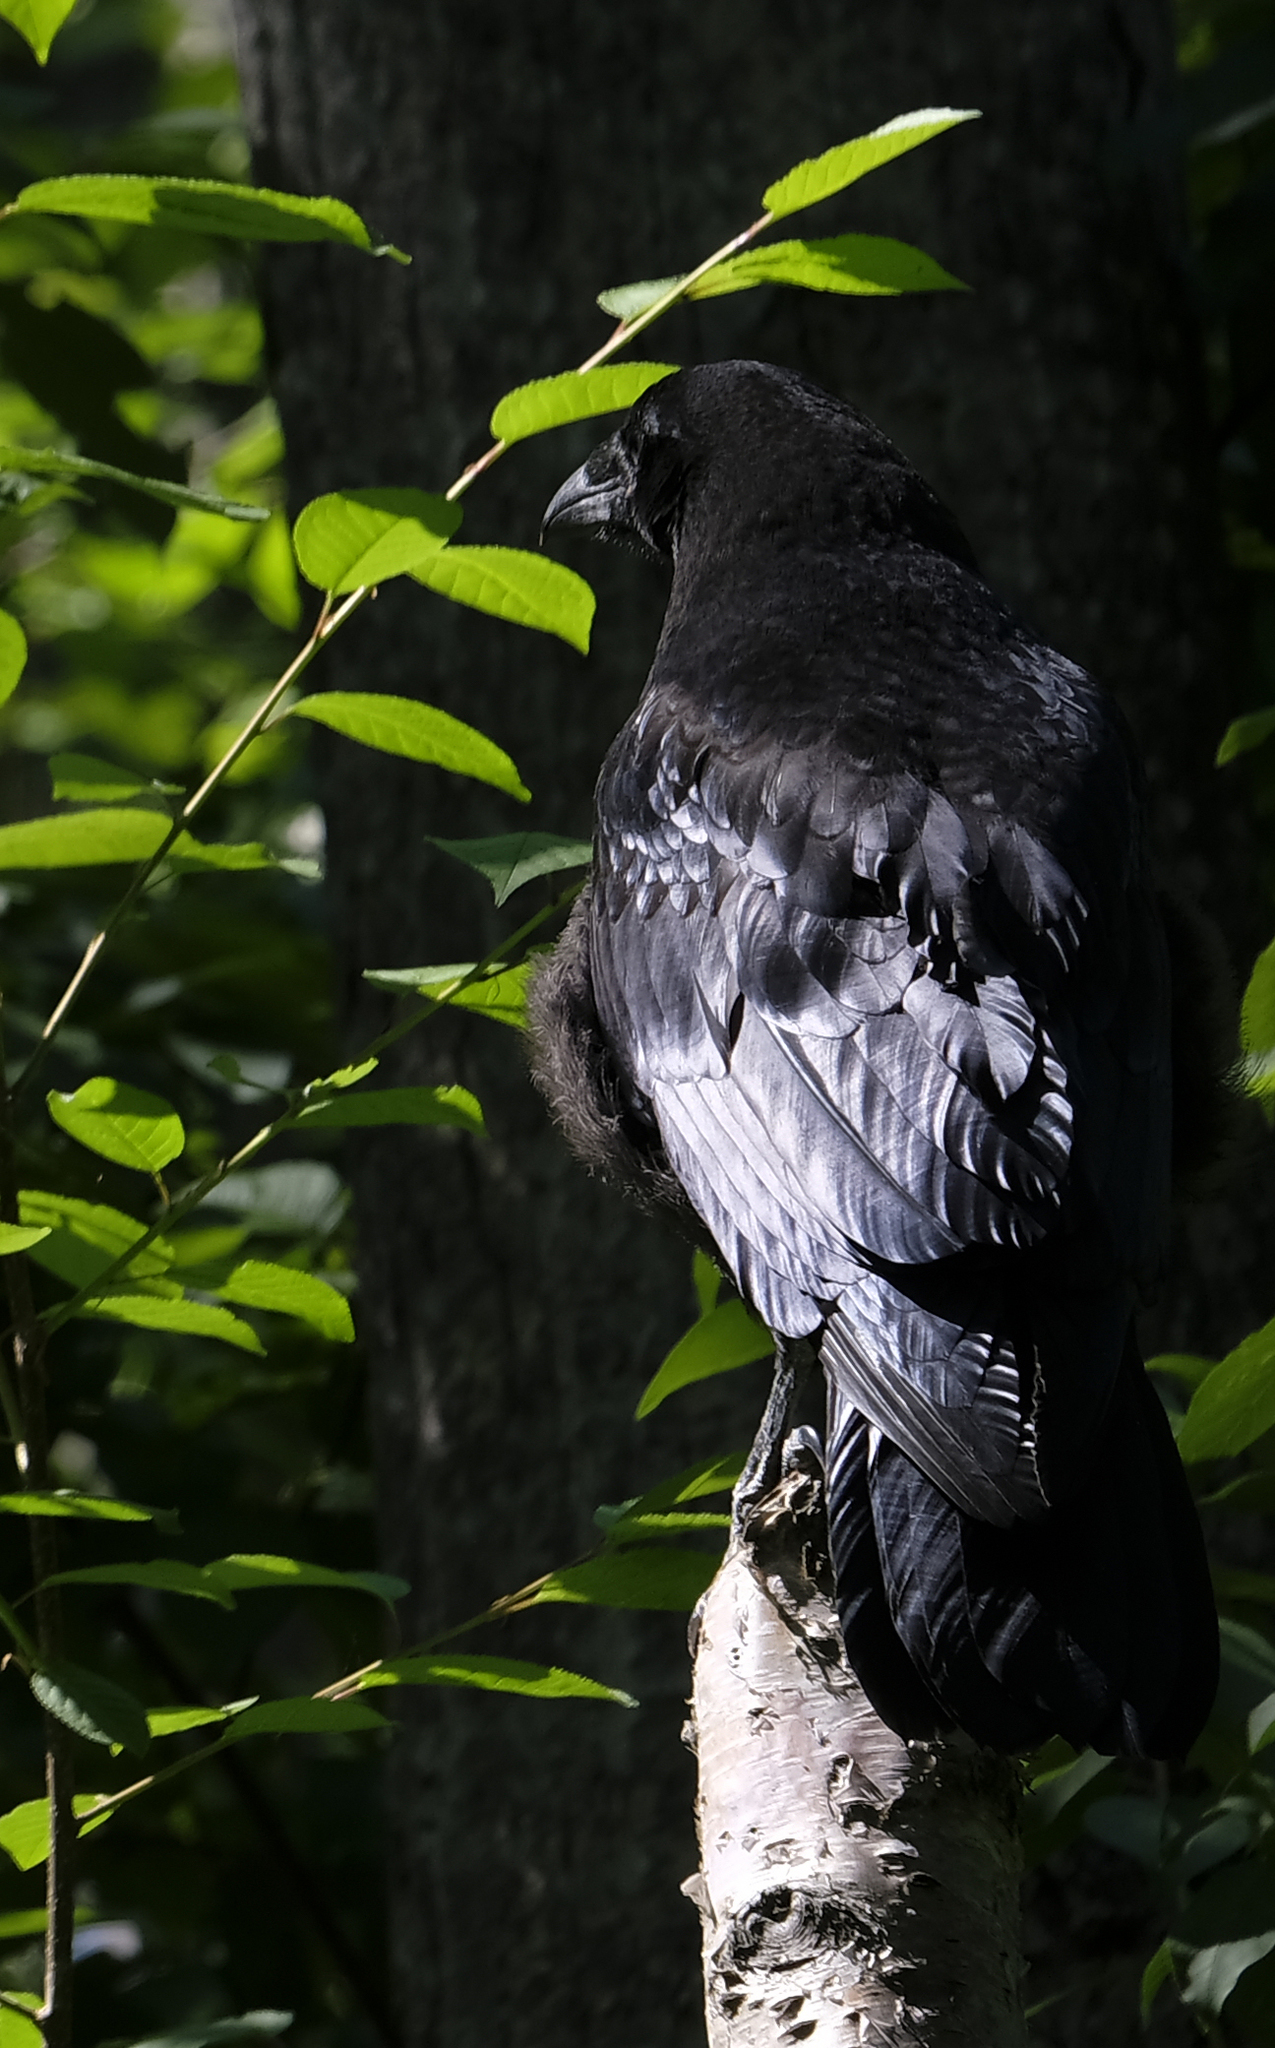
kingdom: Animalia
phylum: Chordata
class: Aves
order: Passeriformes
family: Corvidae
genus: Corvus
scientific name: Corvus corax
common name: Common raven
